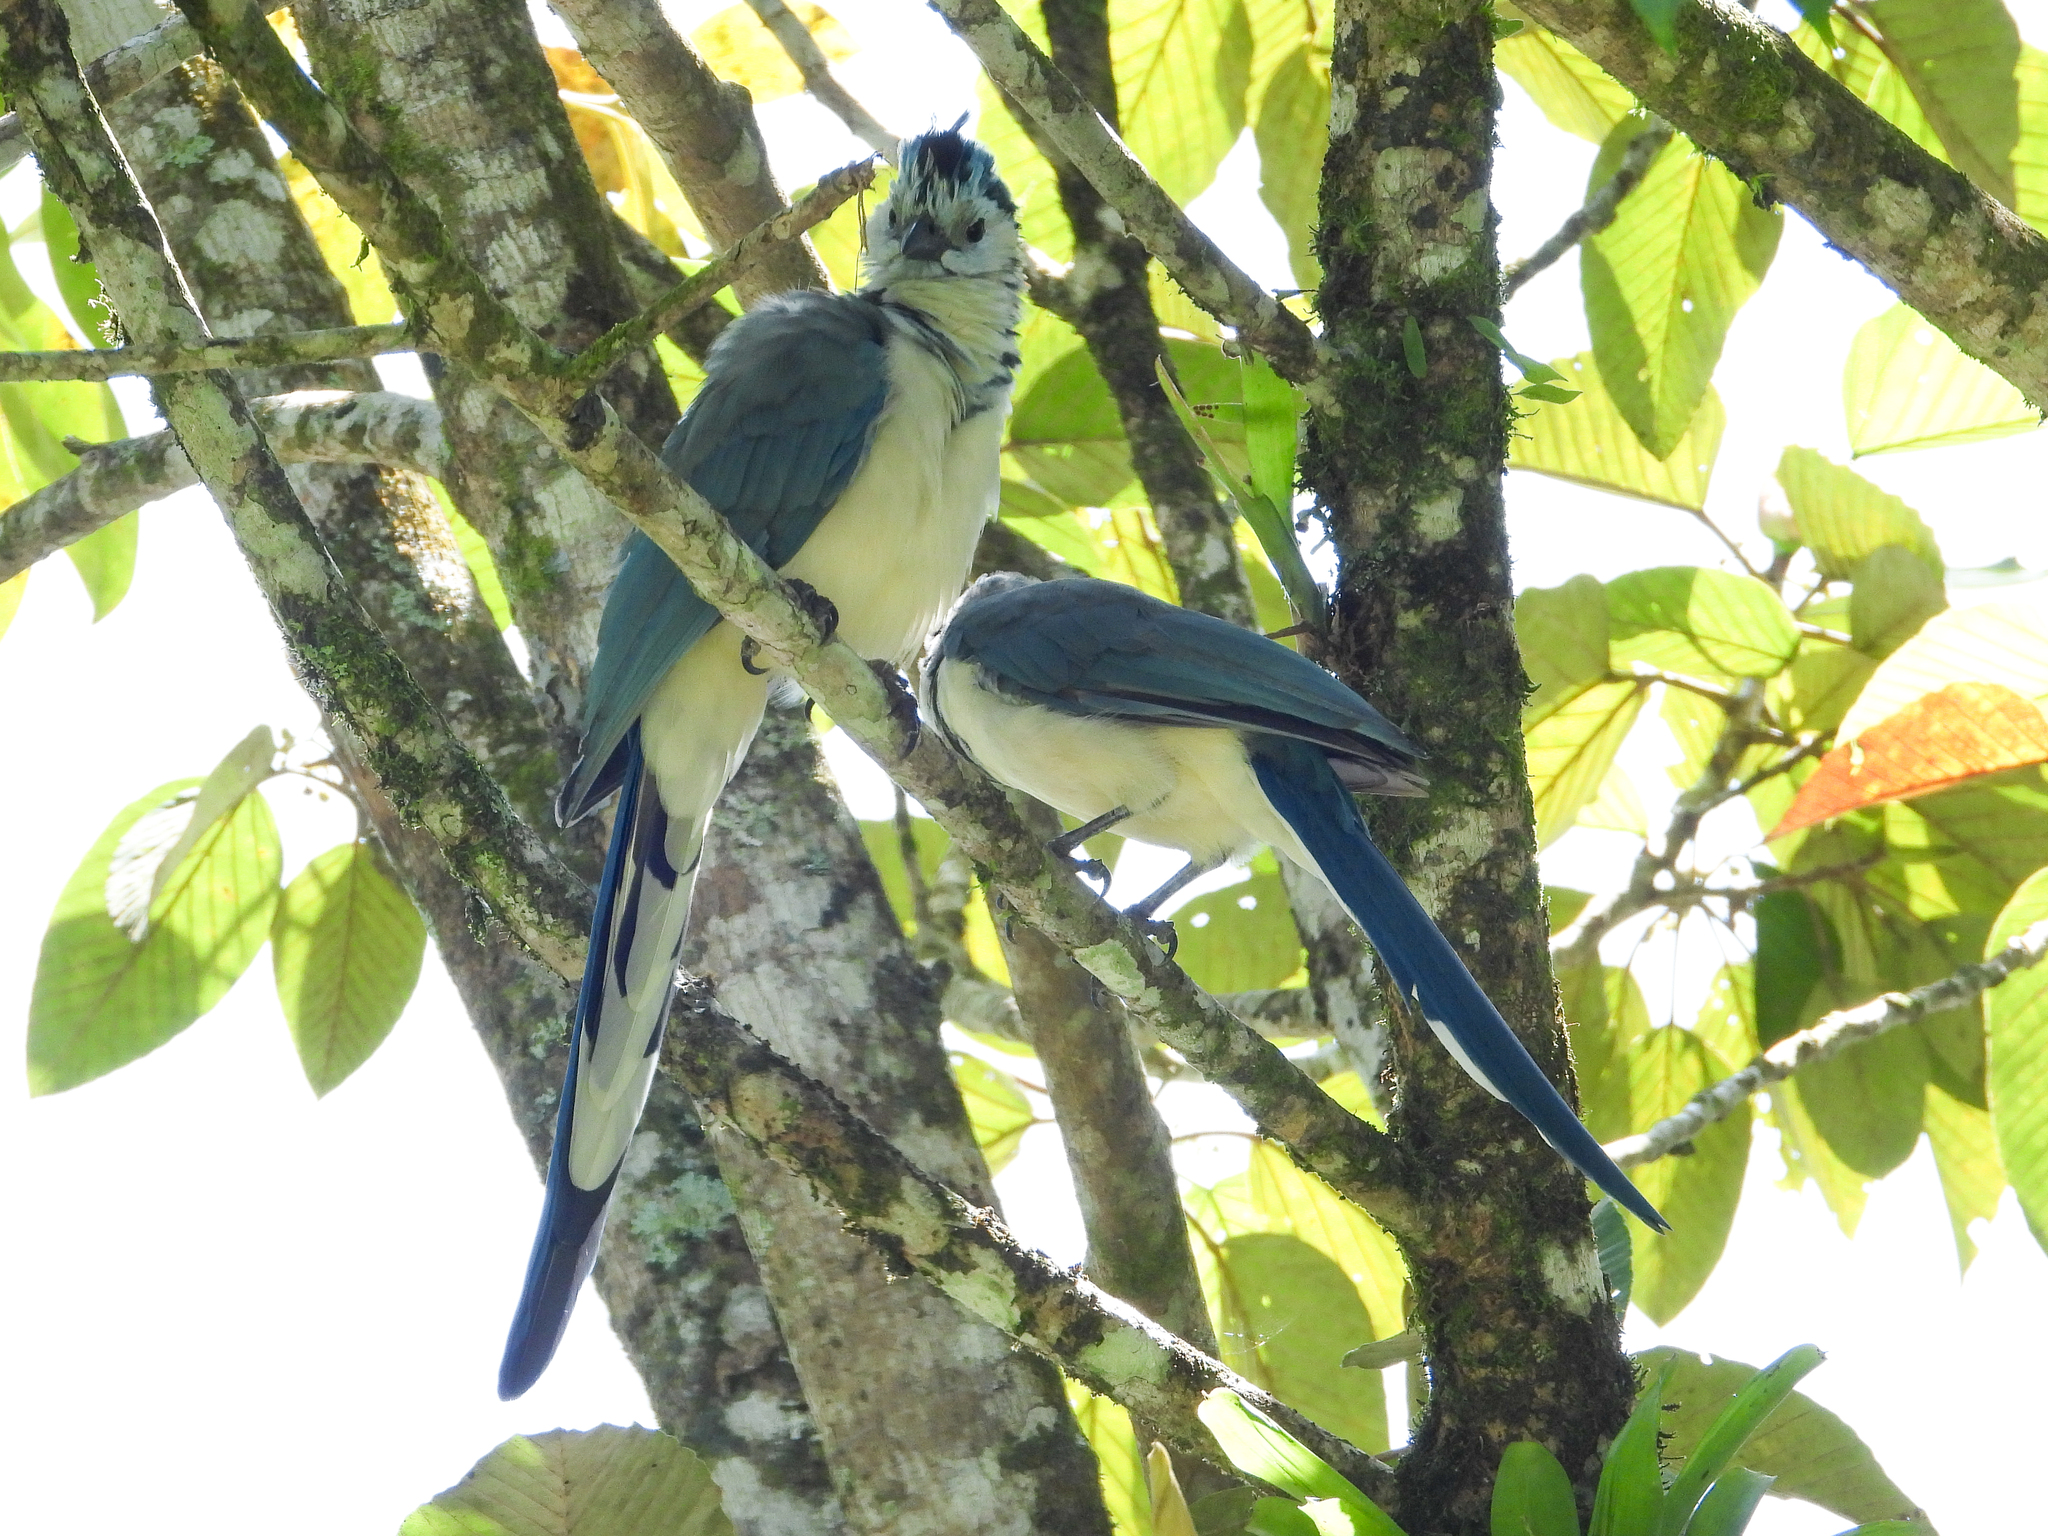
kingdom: Animalia
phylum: Chordata
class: Aves
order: Passeriformes
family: Corvidae
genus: Calocitta
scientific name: Calocitta formosa
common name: White-throated magpie-jay
